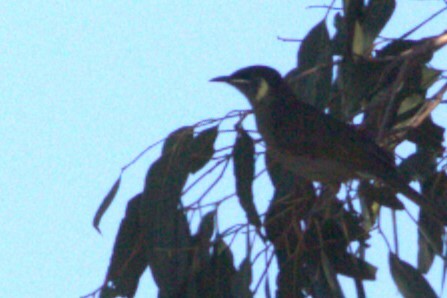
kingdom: Animalia
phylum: Chordata
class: Aves
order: Passeriformes
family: Meliphagidae
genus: Meliphaga
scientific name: Meliphaga lewinii
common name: Lewin's honeyeater
